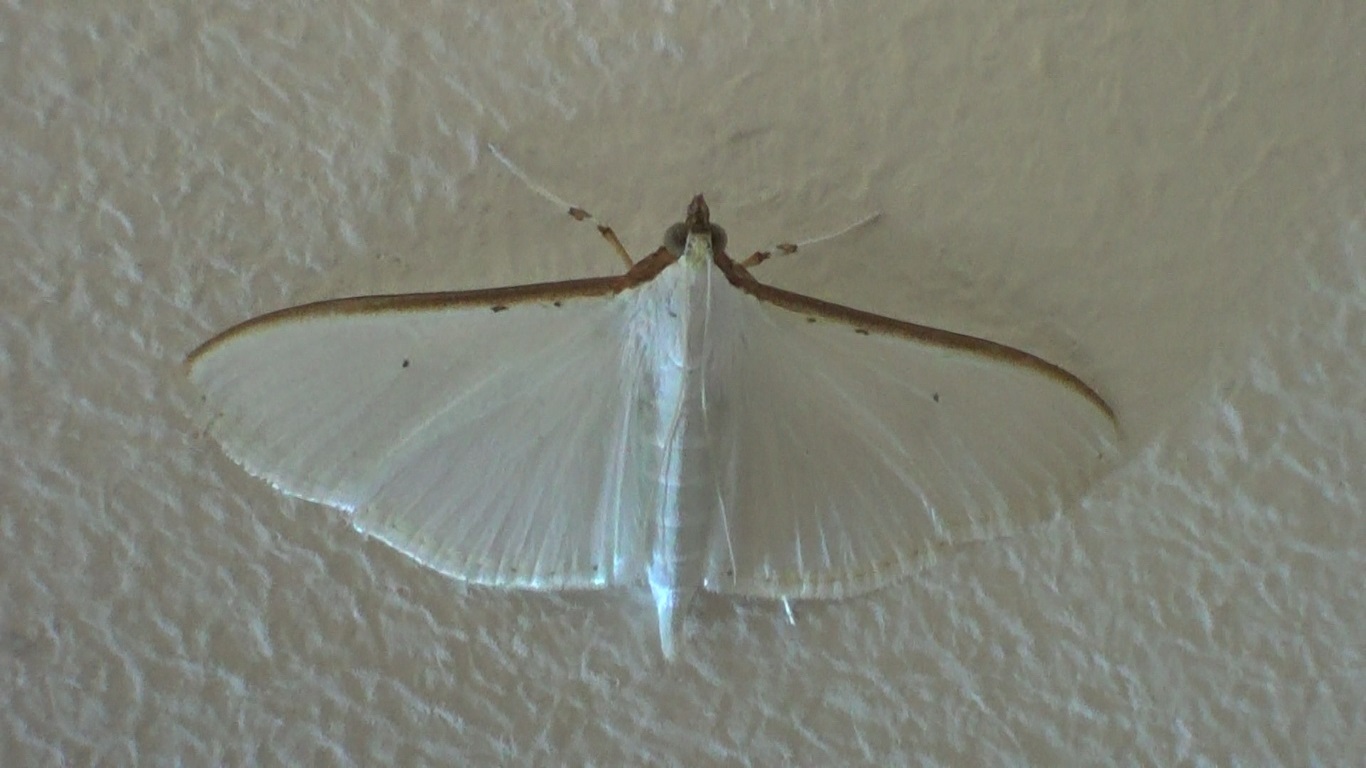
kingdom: Animalia
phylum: Arthropoda
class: Insecta
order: Lepidoptera
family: Crambidae
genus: Palpita
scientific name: Palpita vitrealis
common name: Olive-tree pearl
